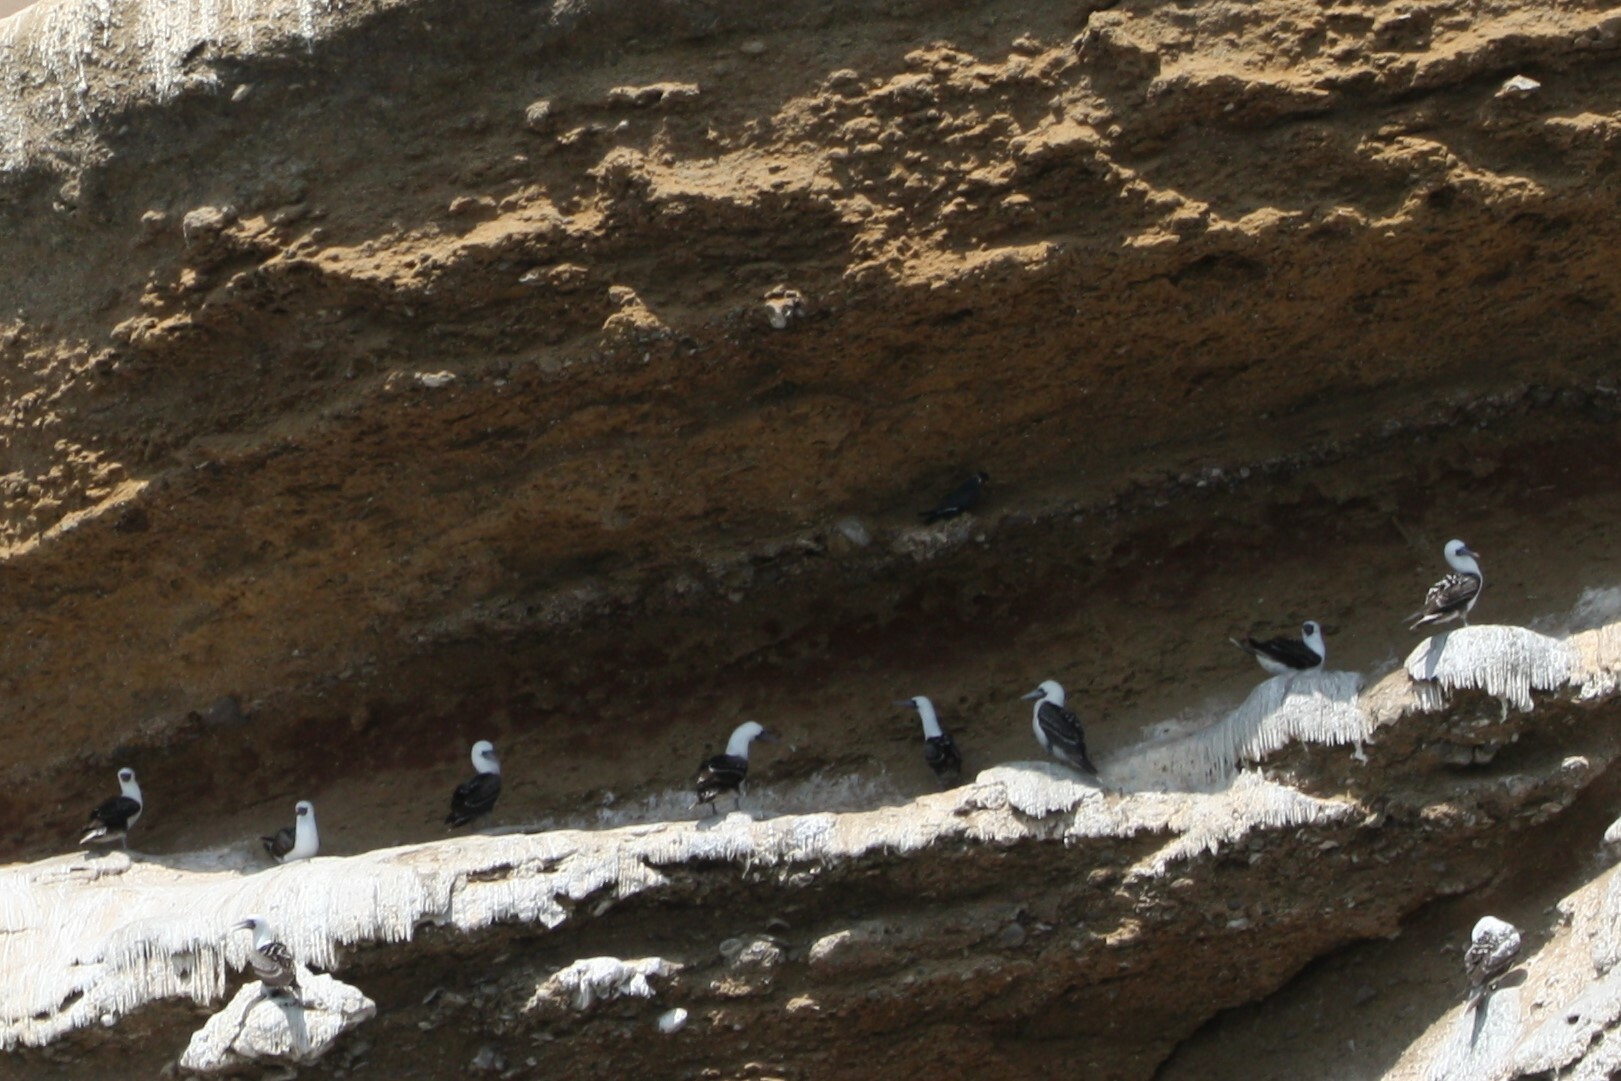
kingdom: Animalia
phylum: Chordata
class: Aves
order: Suliformes
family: Sulidae
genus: Sula
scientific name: Sula variegata
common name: Peruvian booby
